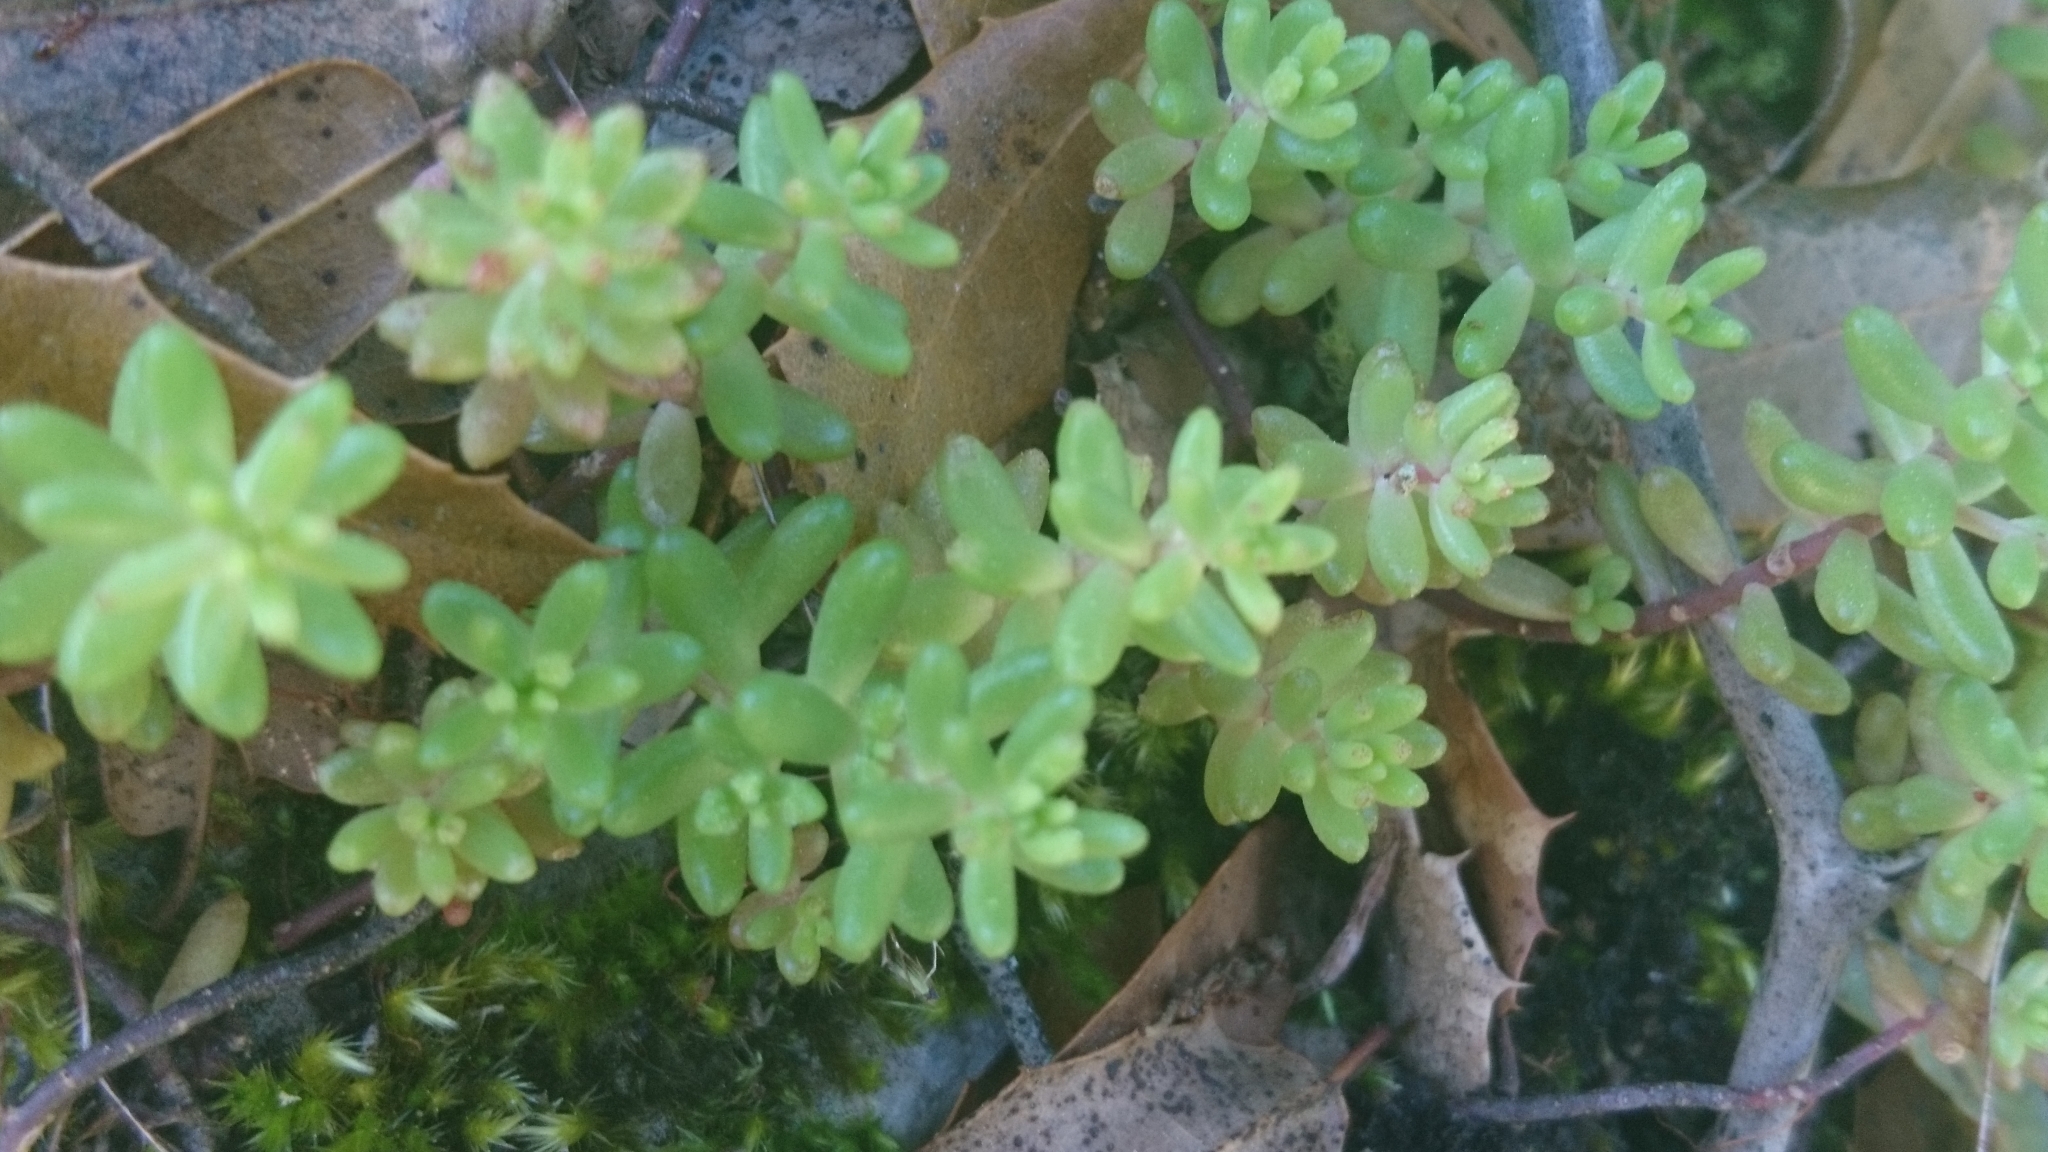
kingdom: Plantae
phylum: Tracheophyta
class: Magnoliopsida
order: Saxifragales
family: Crassulaceae
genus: Sedum
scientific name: Sedum album
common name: White stonecrop
